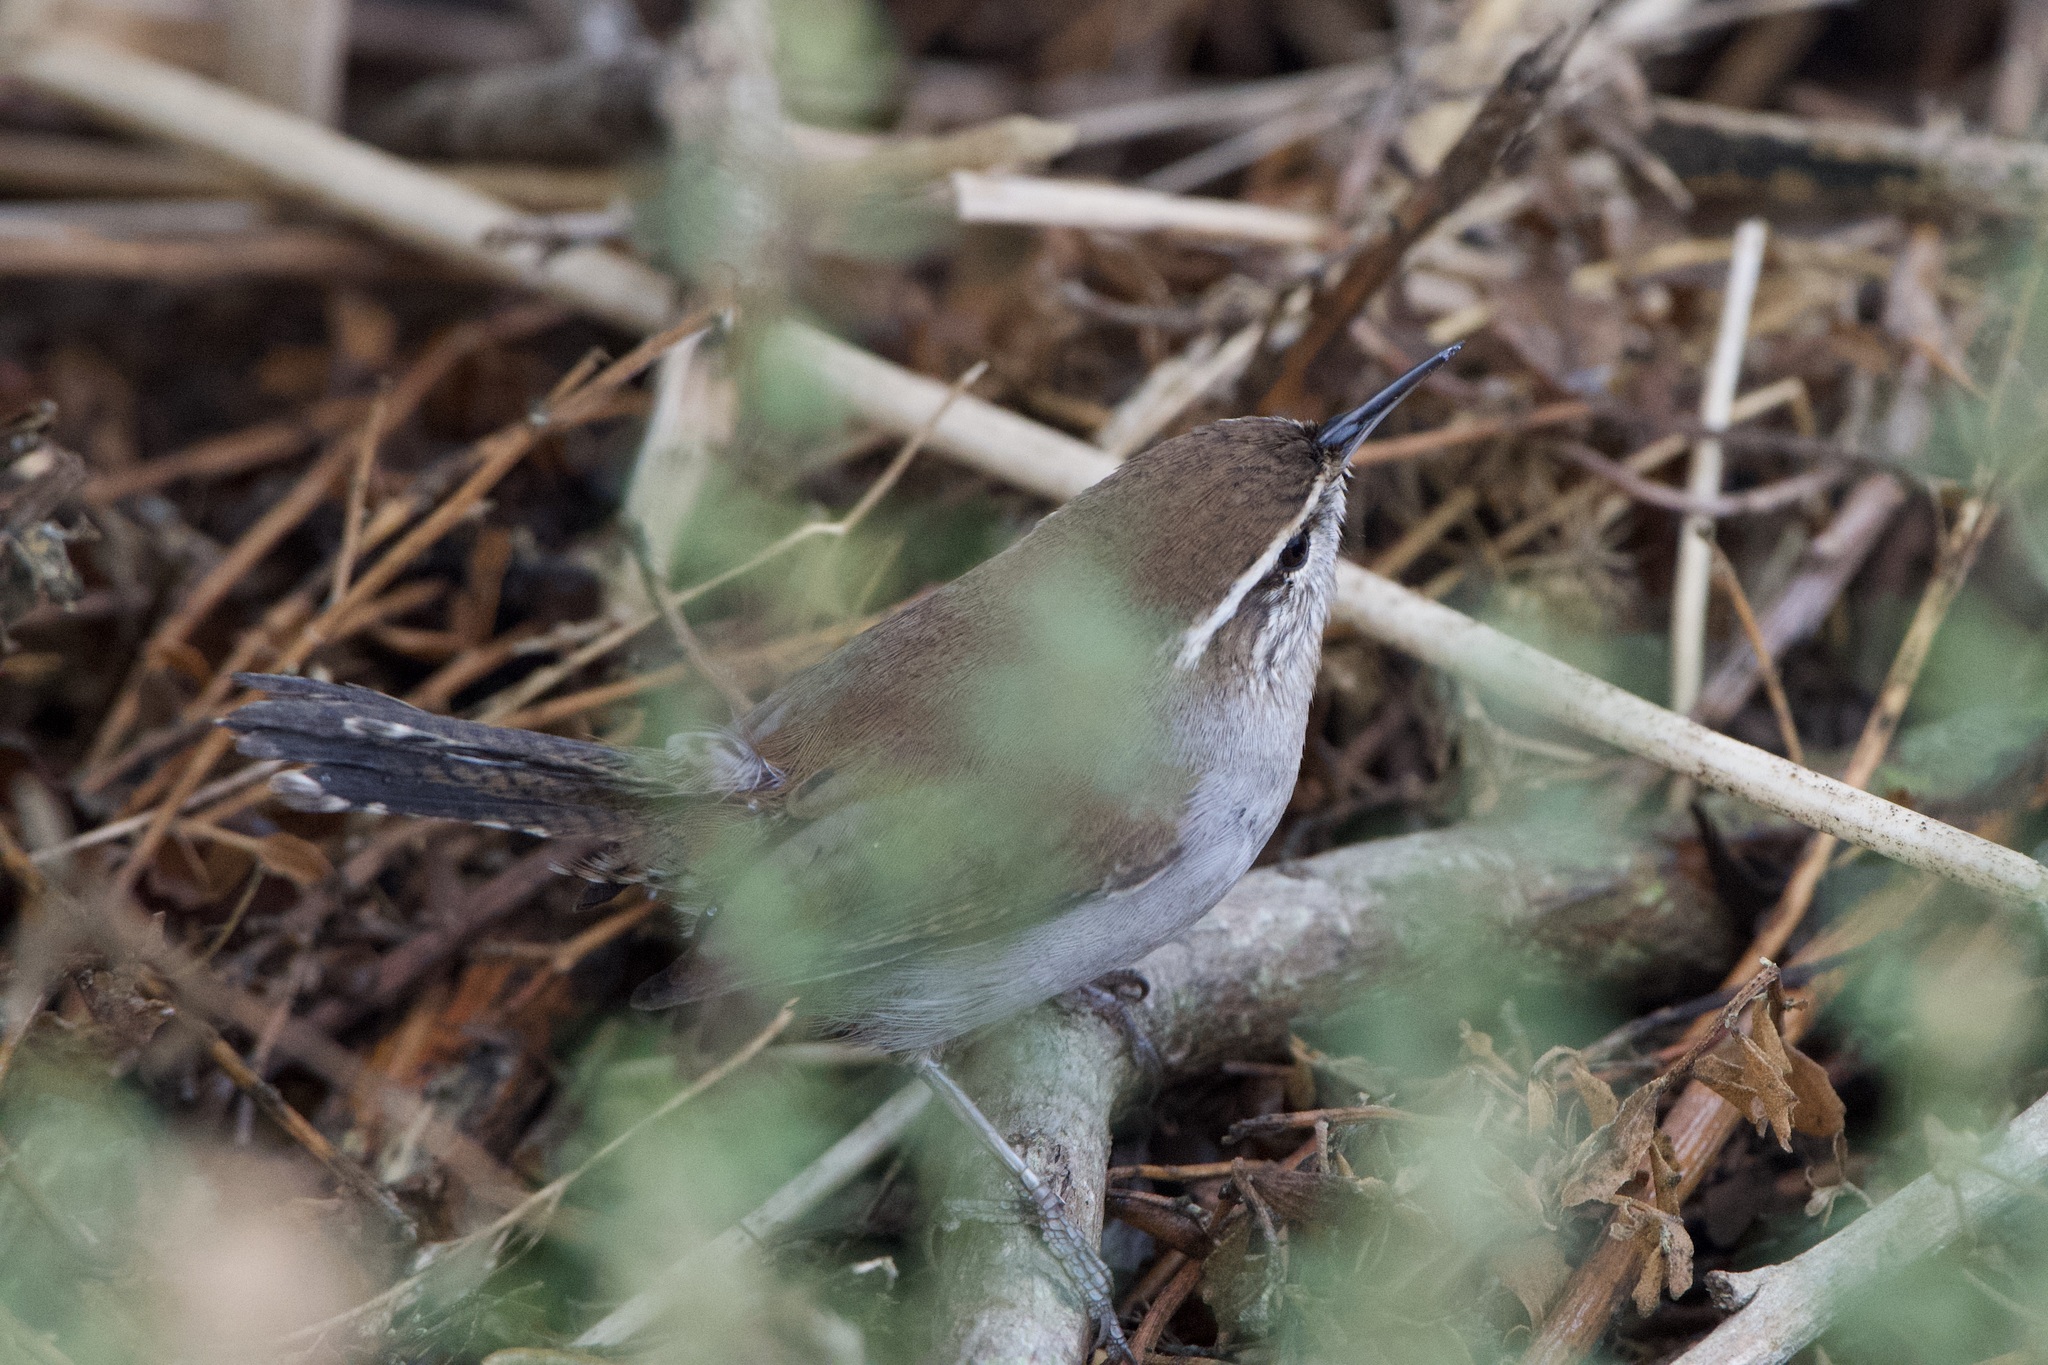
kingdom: Animalia
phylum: Chordata
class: Aves
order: Passeriformes
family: Troglodytidae
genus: Thryomanes
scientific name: Thryomanes bewickii
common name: Bewick's wren
